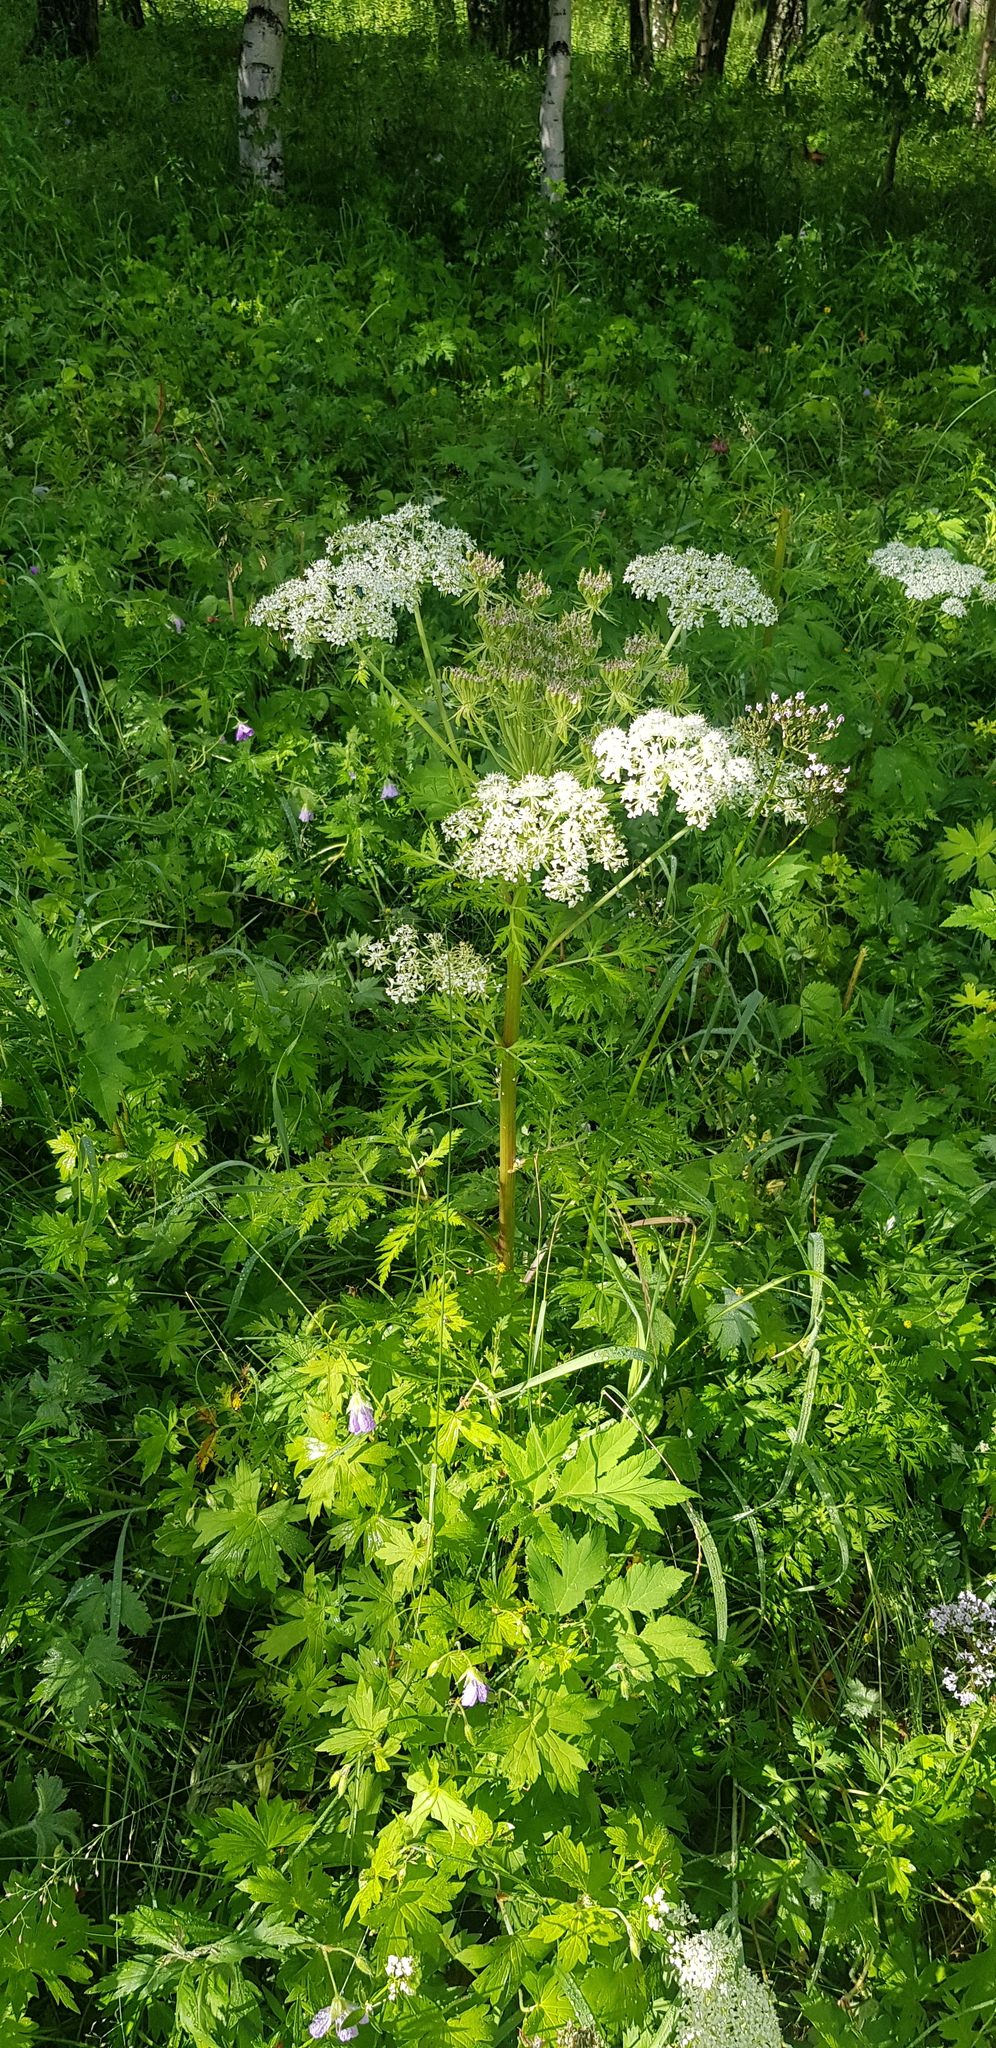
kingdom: Plantae
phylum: Tracheophyta
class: Magnoliopsida
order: Apiales
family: Apiaceae
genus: Pleurospermum
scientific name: Pleurospermum uralense
